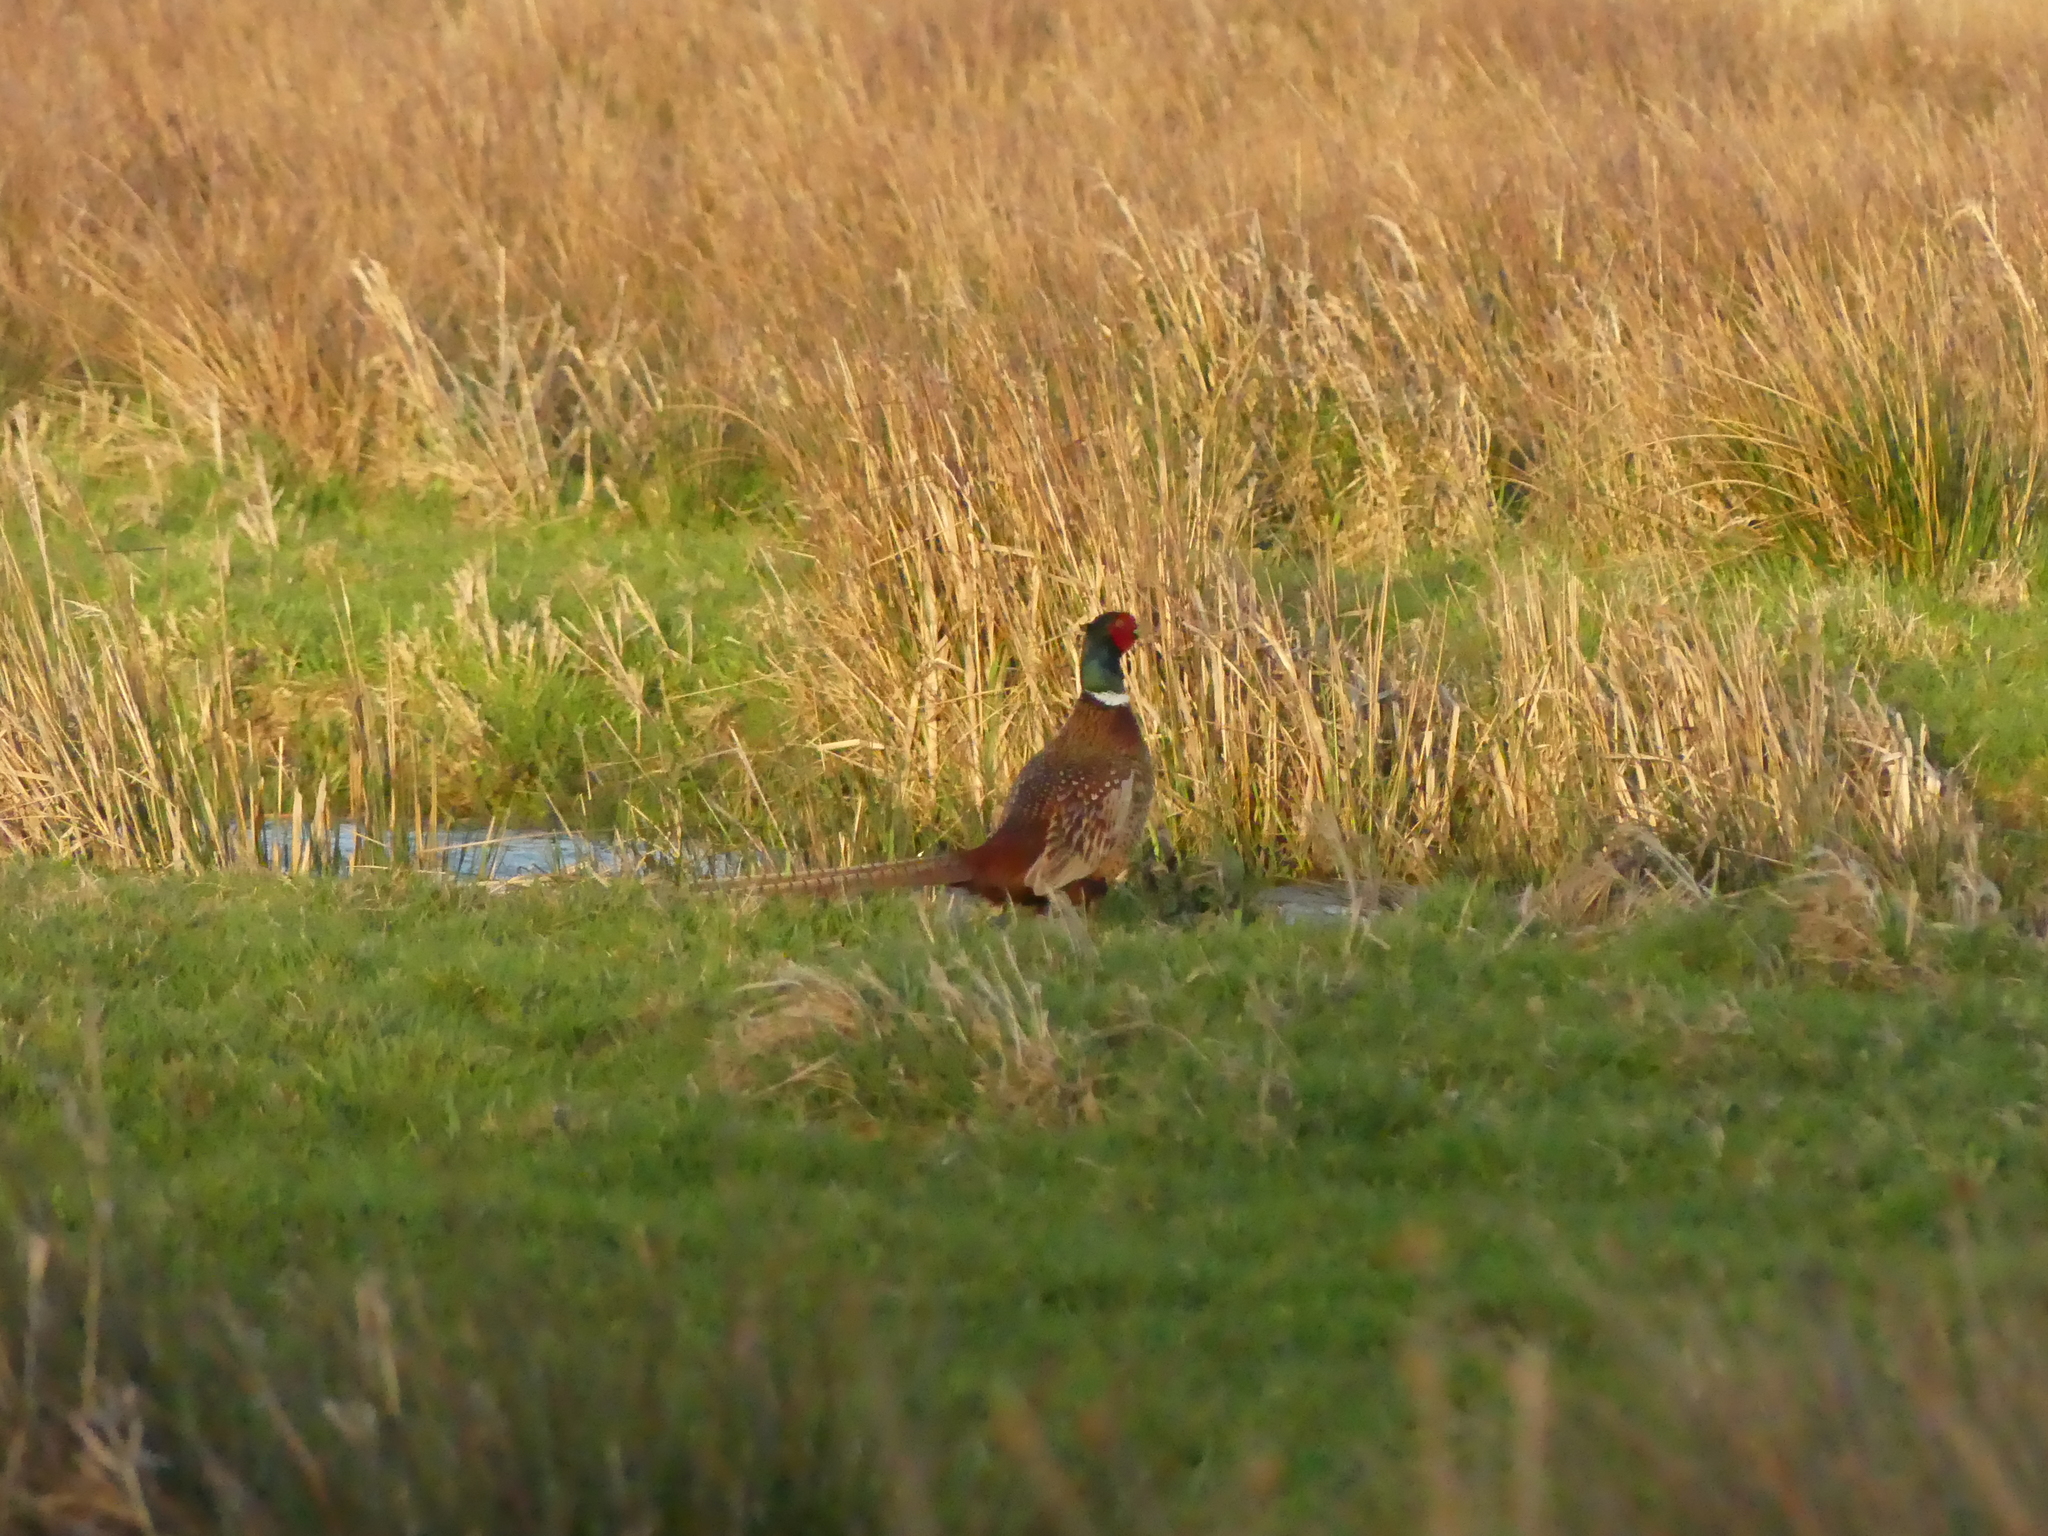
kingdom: Animalia
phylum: Chordata
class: Aves
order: Galliformes
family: Phasianidae
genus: Phasianus
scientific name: Phasianus colchicus
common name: Common pheasant
